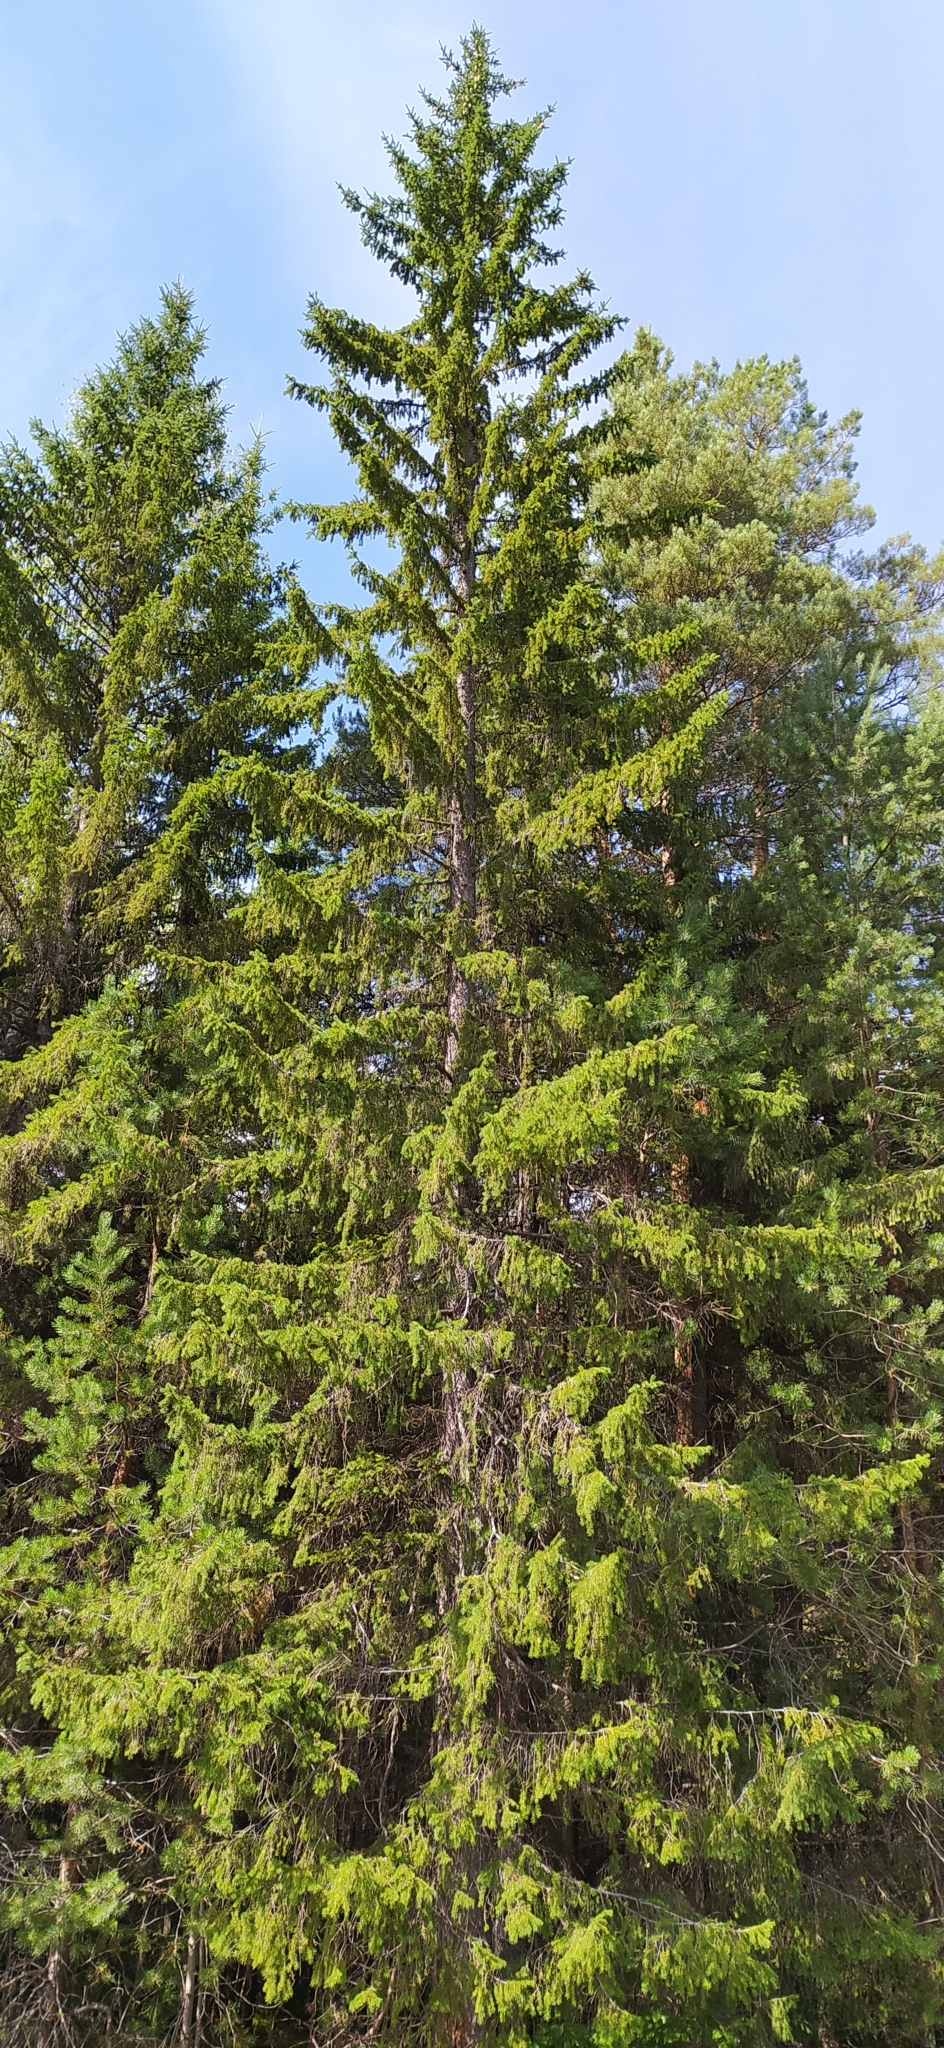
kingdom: Plantae
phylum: Tracheophyta
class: Pinopsida
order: Pinales
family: Pinaceae
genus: Picea
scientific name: Picea obovata
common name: Siberian spruce
